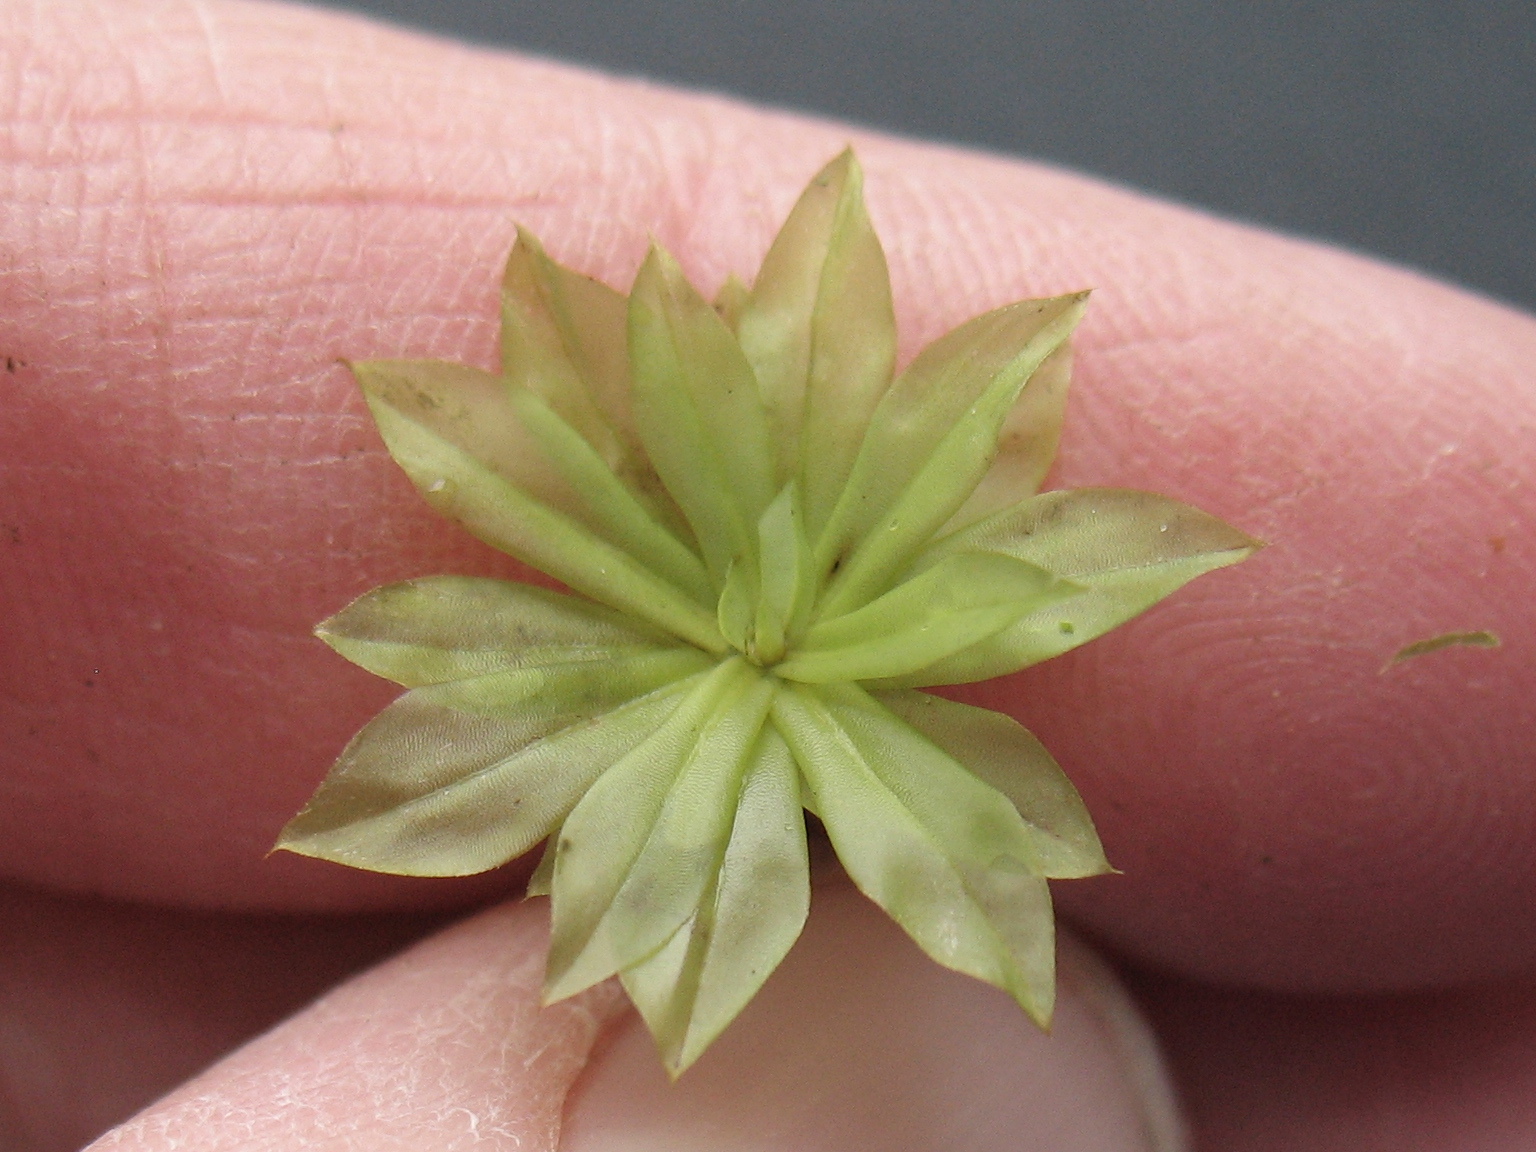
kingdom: Plantae
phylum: Bryophyta
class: Bryopsida
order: Bryales
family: Bryaceae
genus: Rhodobryum
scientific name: Rhodobryum roseum
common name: Rose-moss
